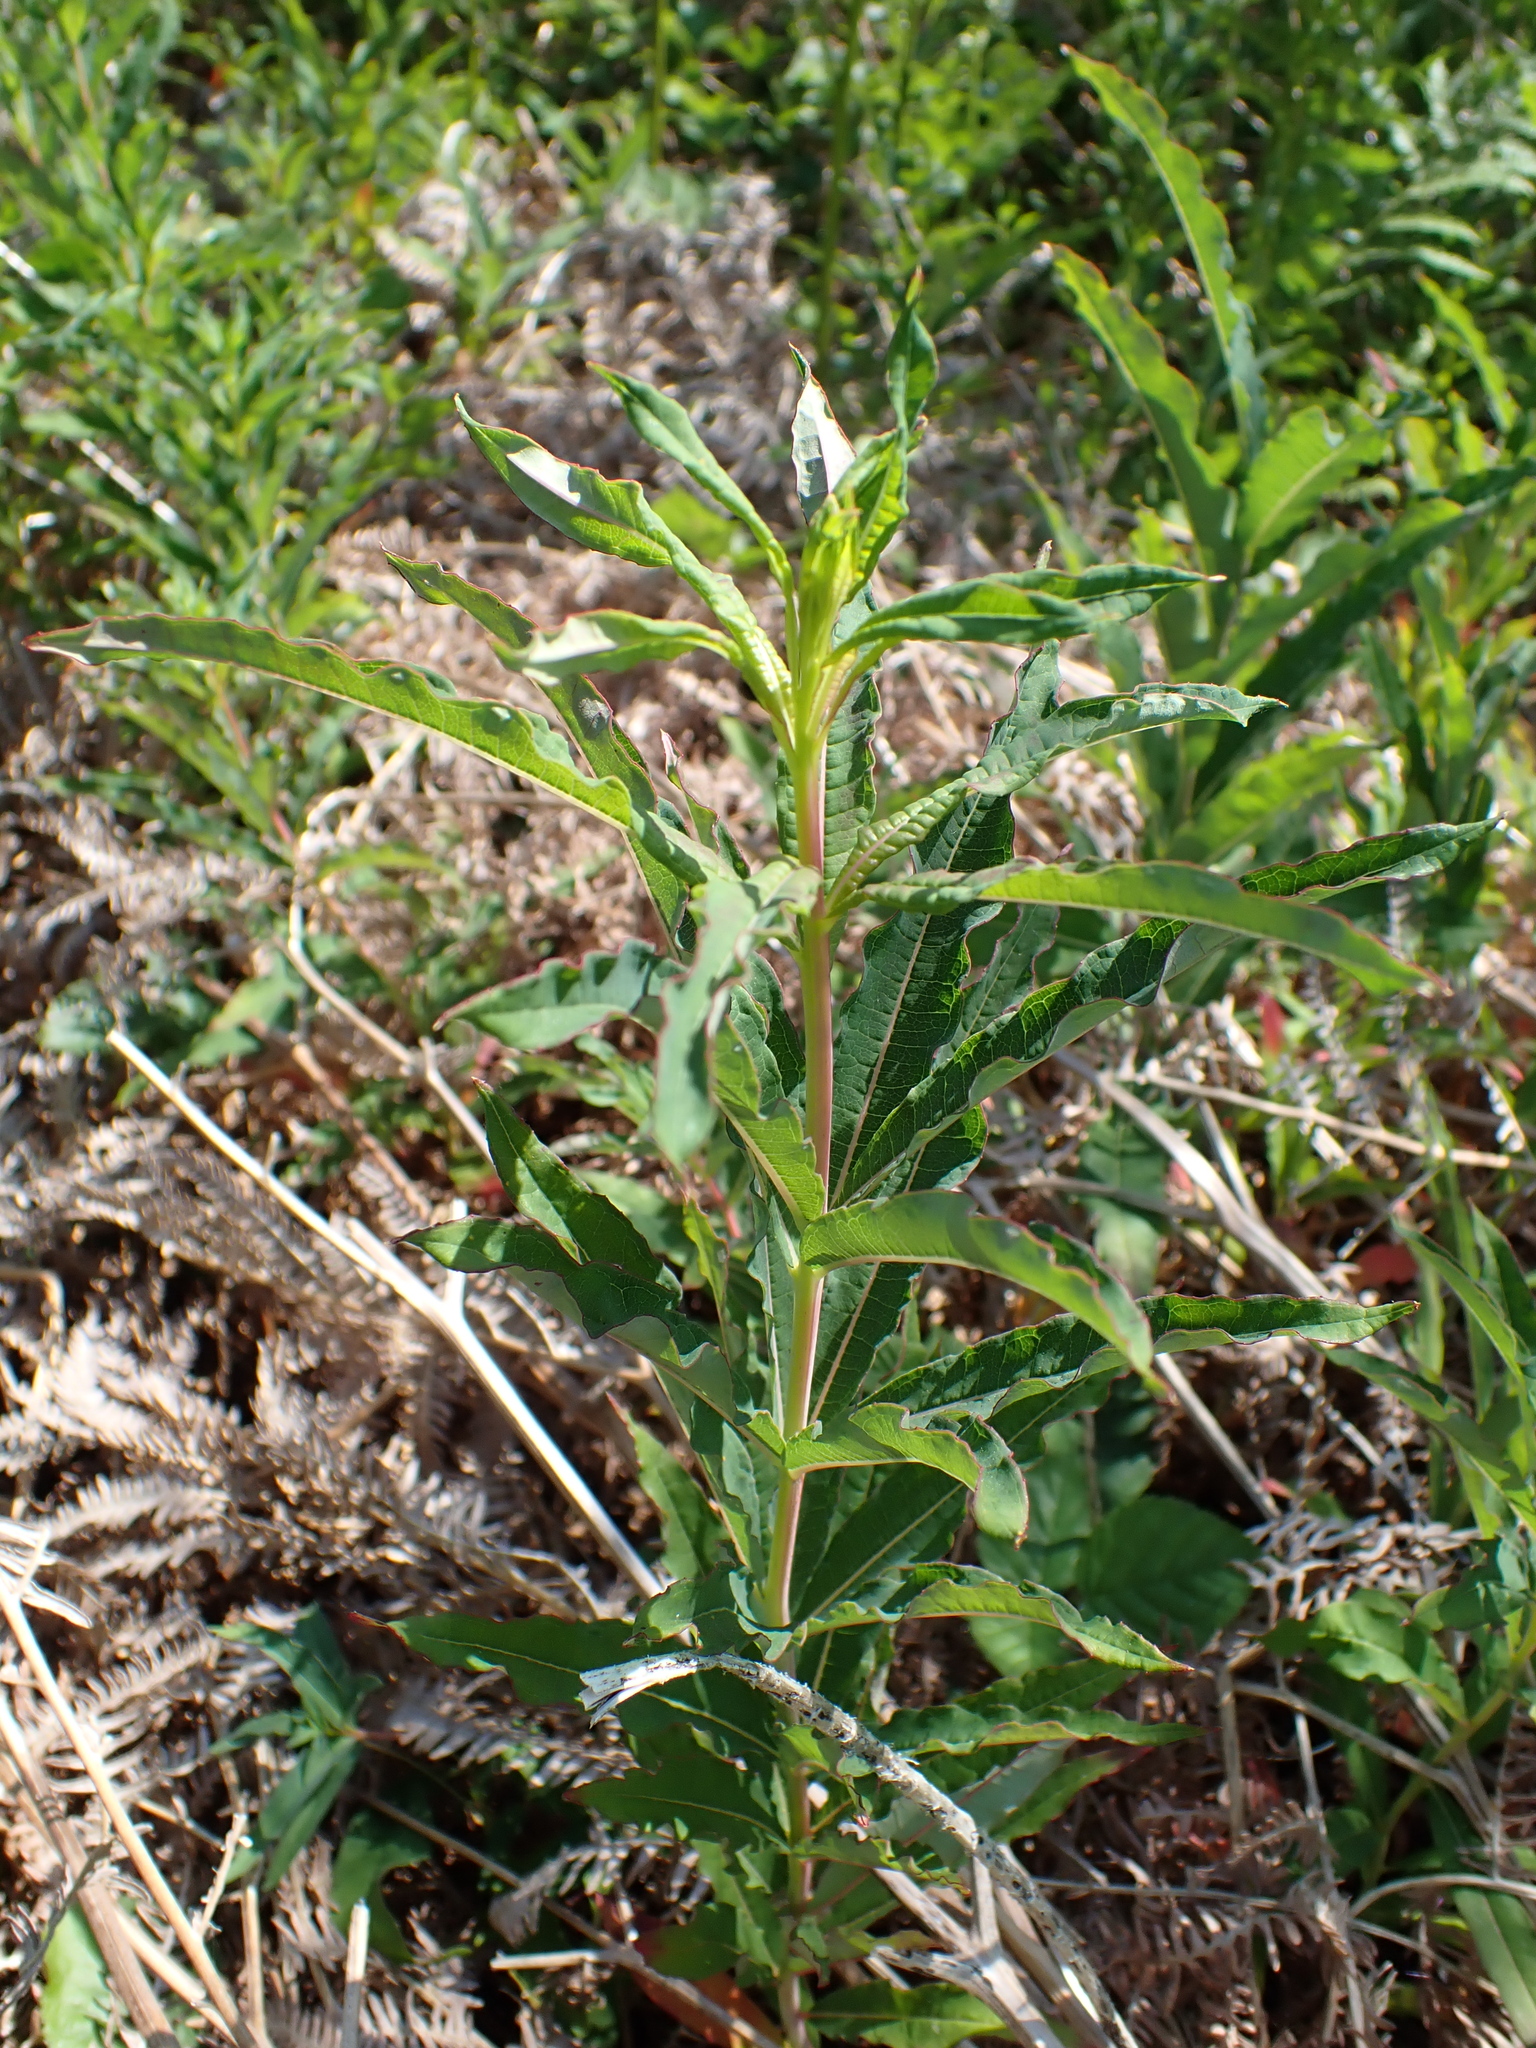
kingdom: Plantae
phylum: Tracheophyta
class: Magnoliopsida
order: Myrtales
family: Onagraceae
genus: Chamaenerion
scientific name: Chamaenerion angustifolium
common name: Fireweed
